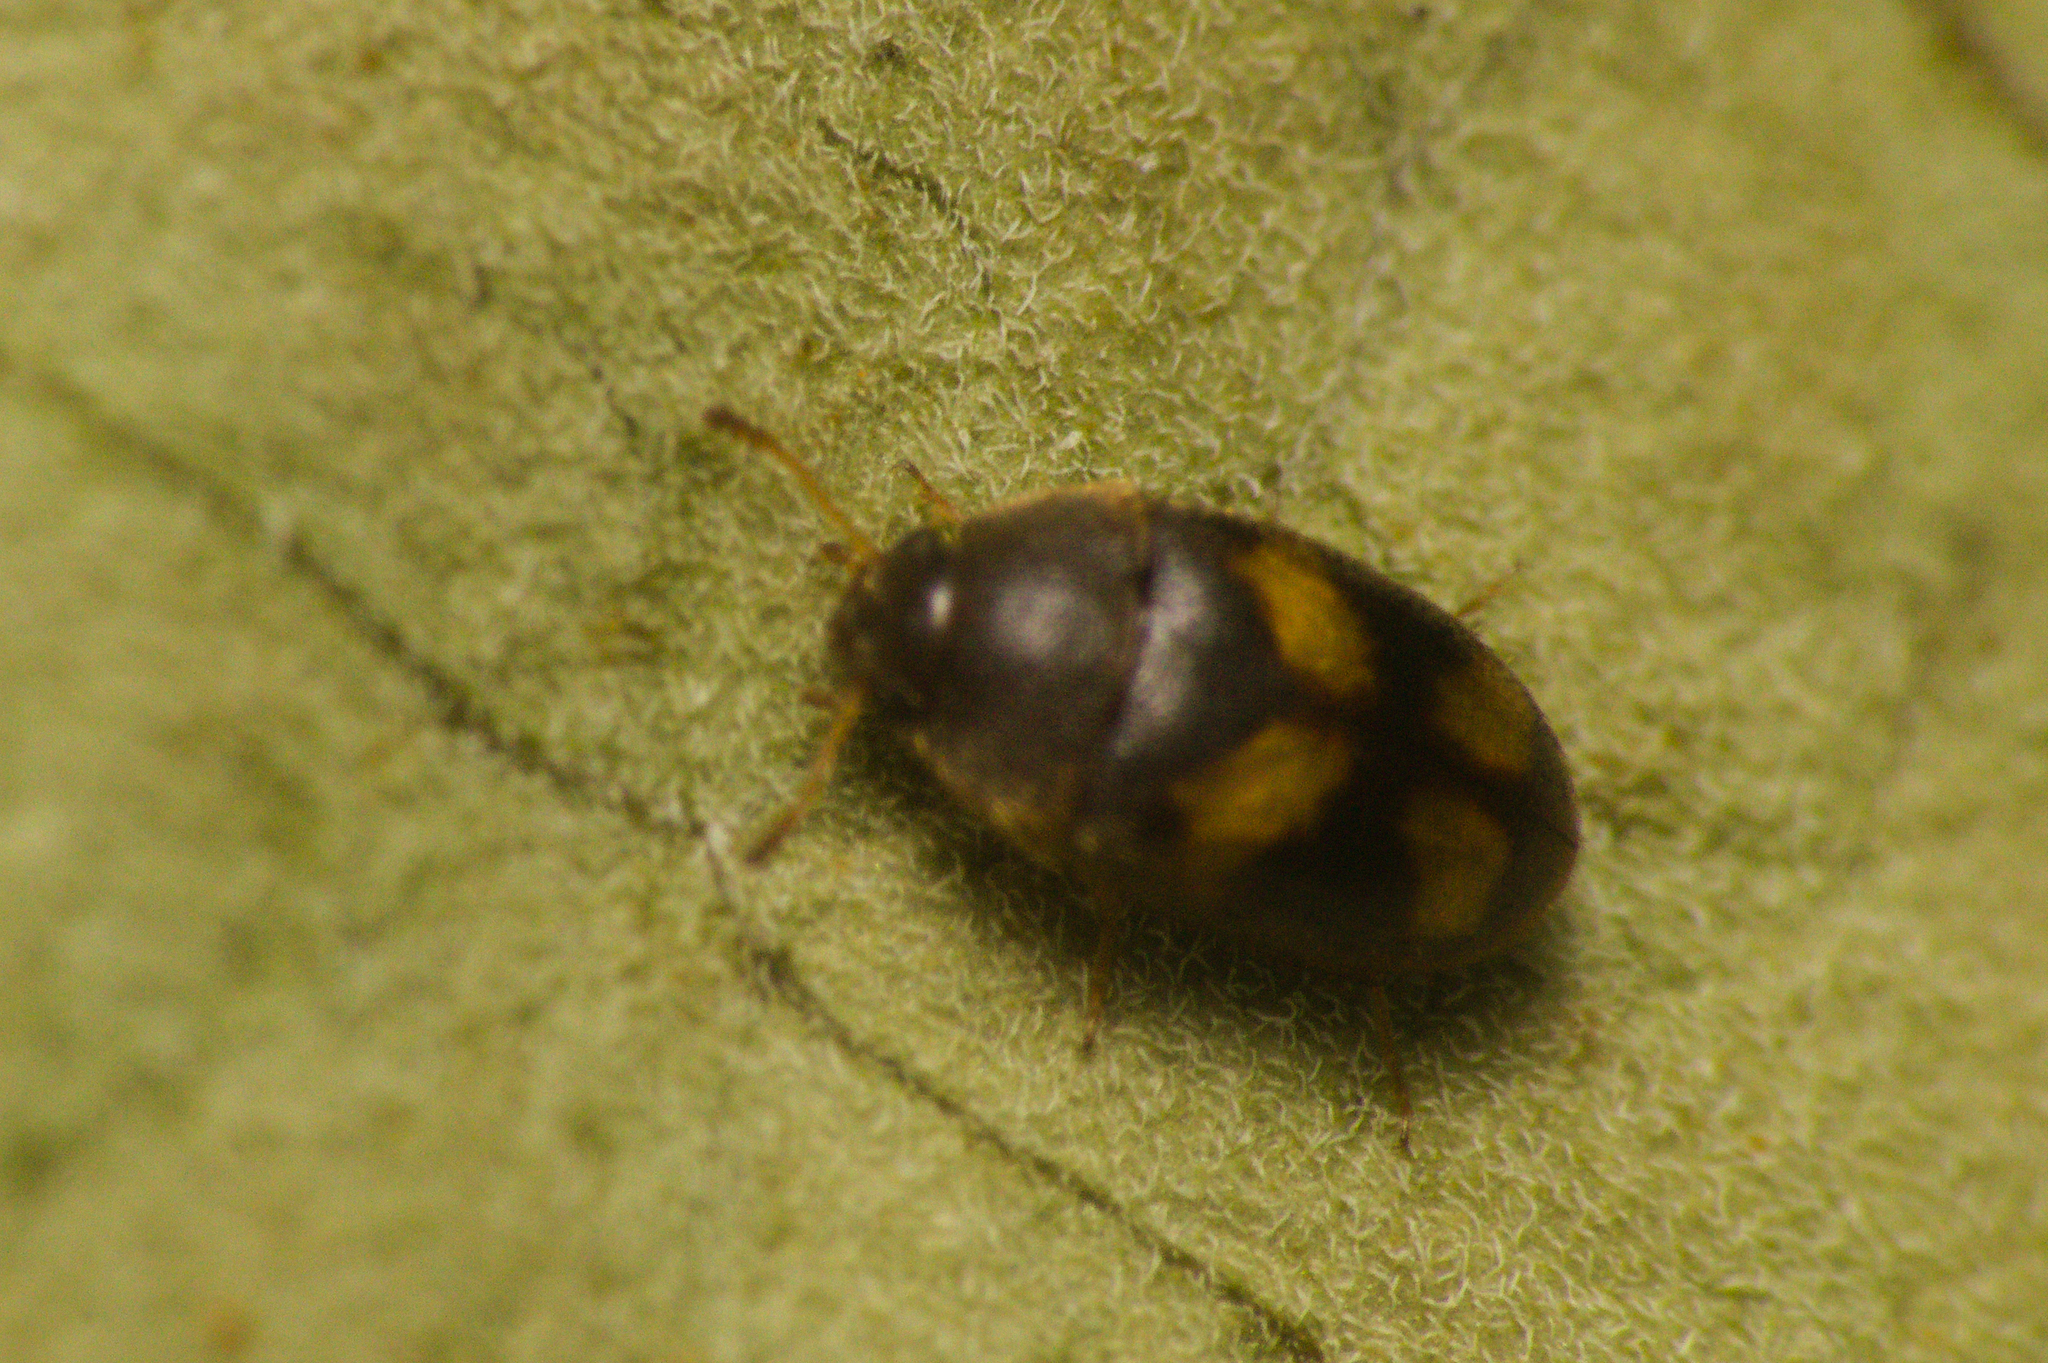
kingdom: Animalia
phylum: Arthropoda
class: Insecta
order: Coleoptera
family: Mycetophagidae
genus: Litargus
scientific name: Litargus tetraspilotus
